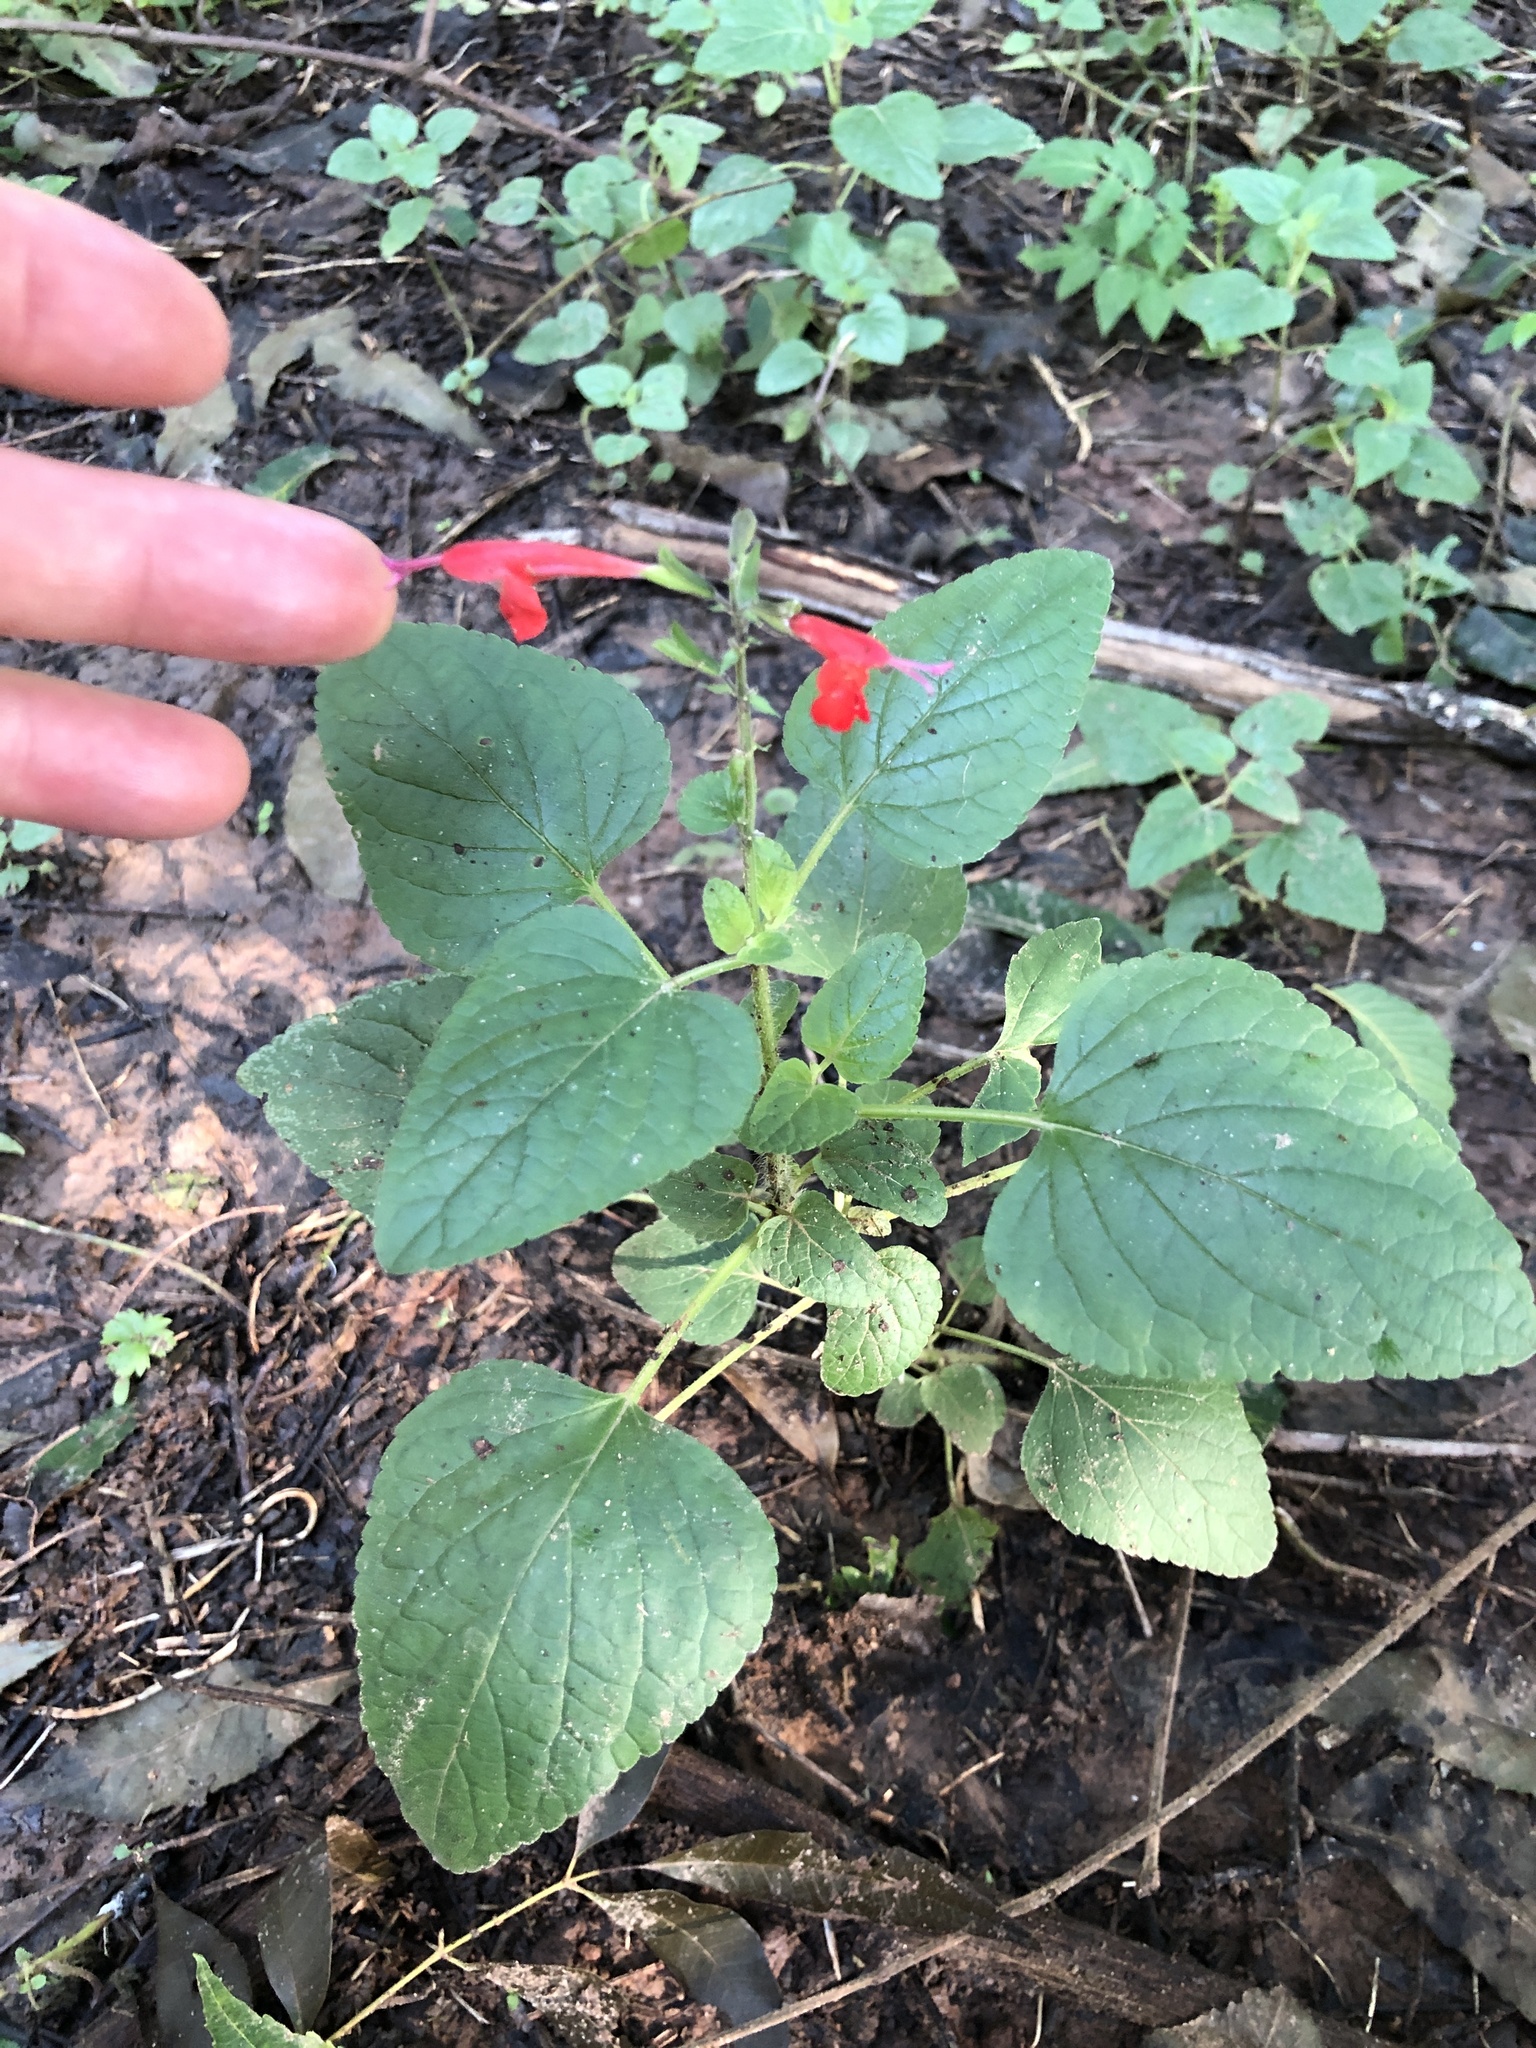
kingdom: Plantae
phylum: Tracheophyta
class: Magnoliopsida
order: Lamiales
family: Lamiaceae
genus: Salvia
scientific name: Salvia coccinea
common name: Blood sage
